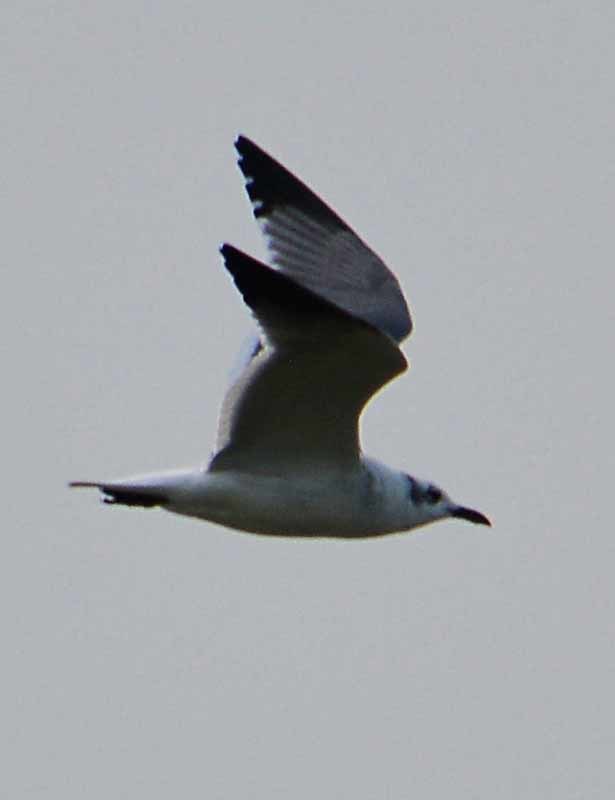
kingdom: Animalia
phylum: Chordata
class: Aves
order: Charadriiformes
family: Laridae
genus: Leucophaeus
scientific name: Leucophaeus atricilla
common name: Laughing gull
